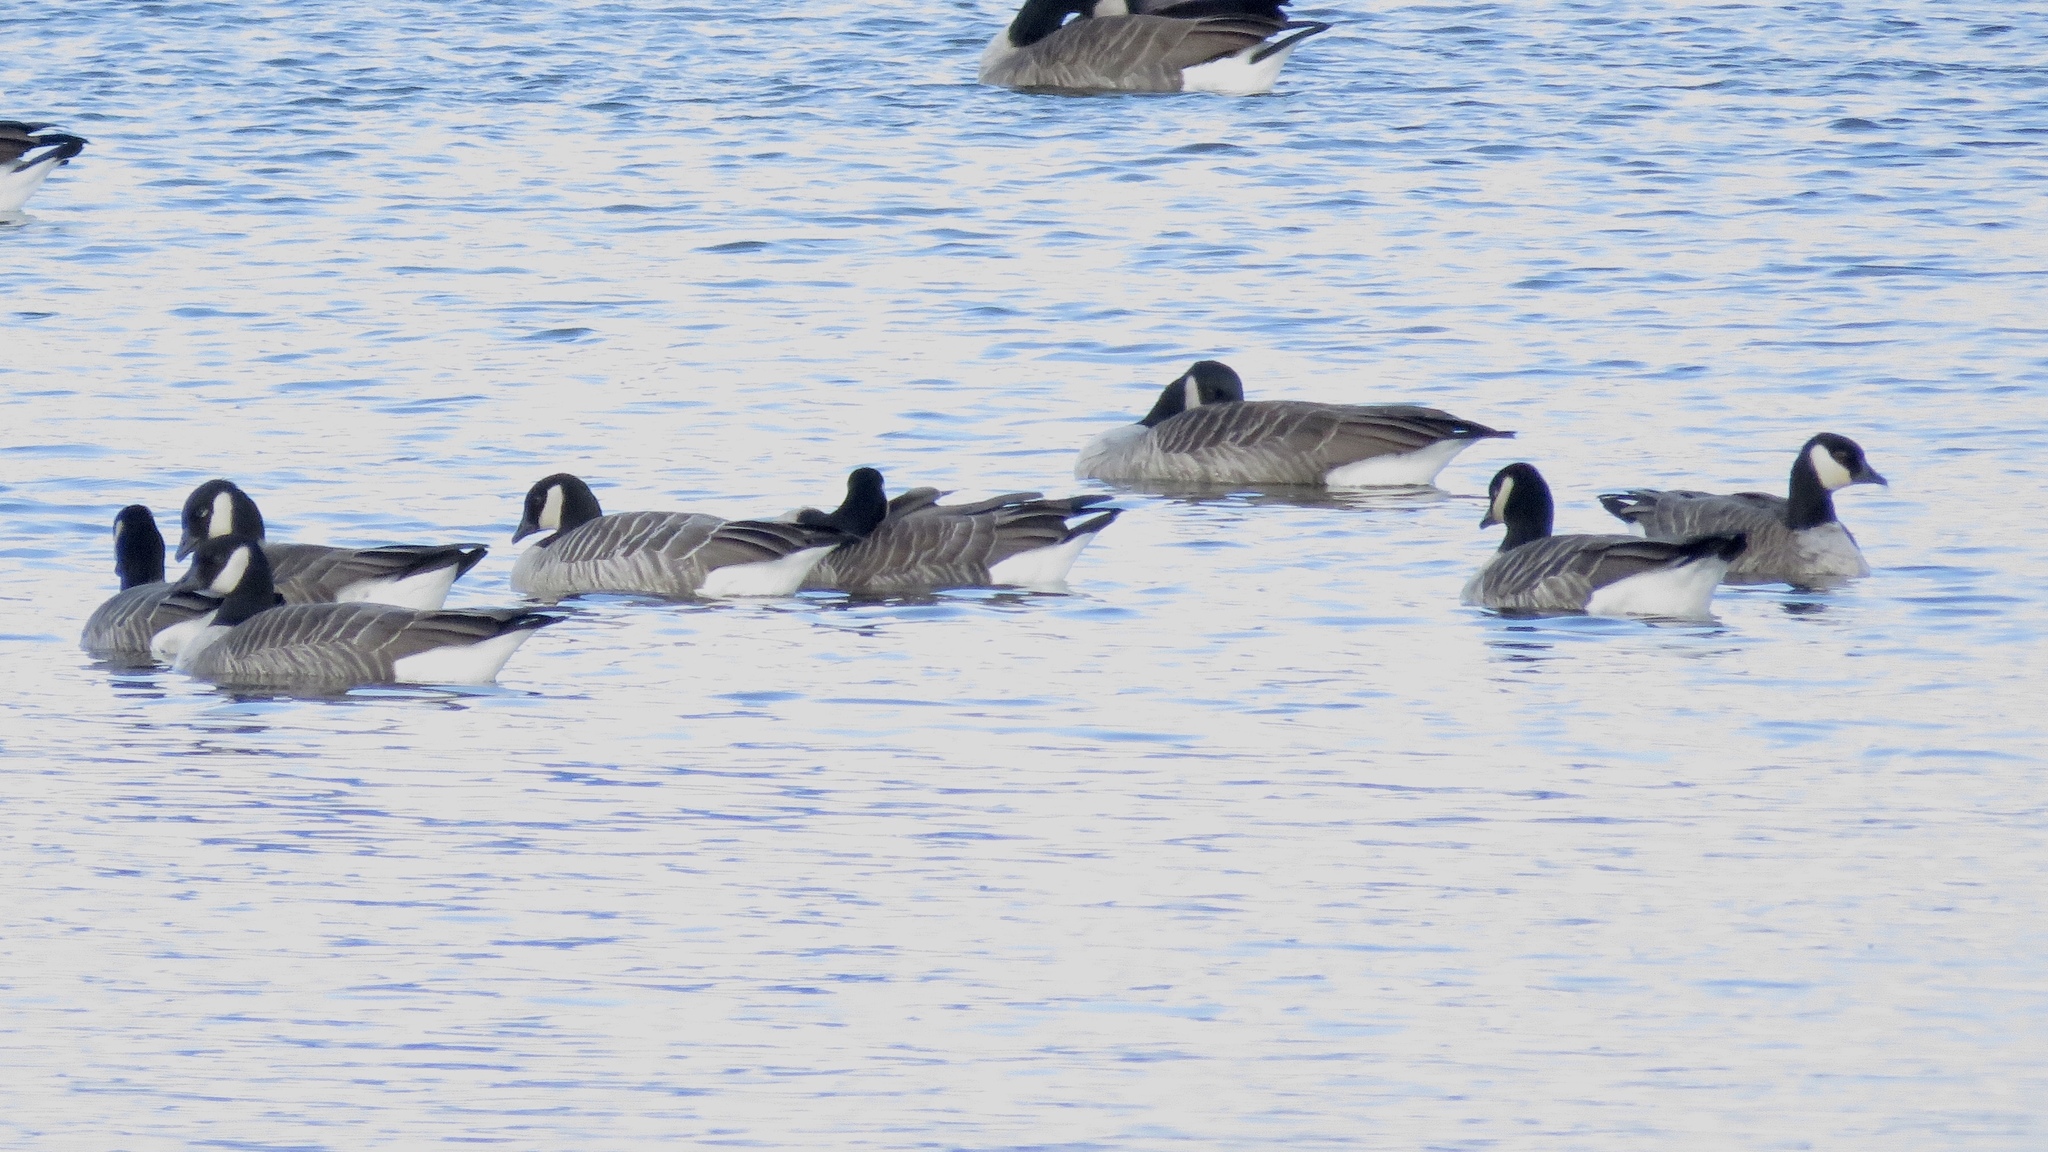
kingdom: Animalia
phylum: Chordata
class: Aves
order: Anseriformes
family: Anatidae
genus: Branta
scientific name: Branta hutchinsii
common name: Cackling goose
